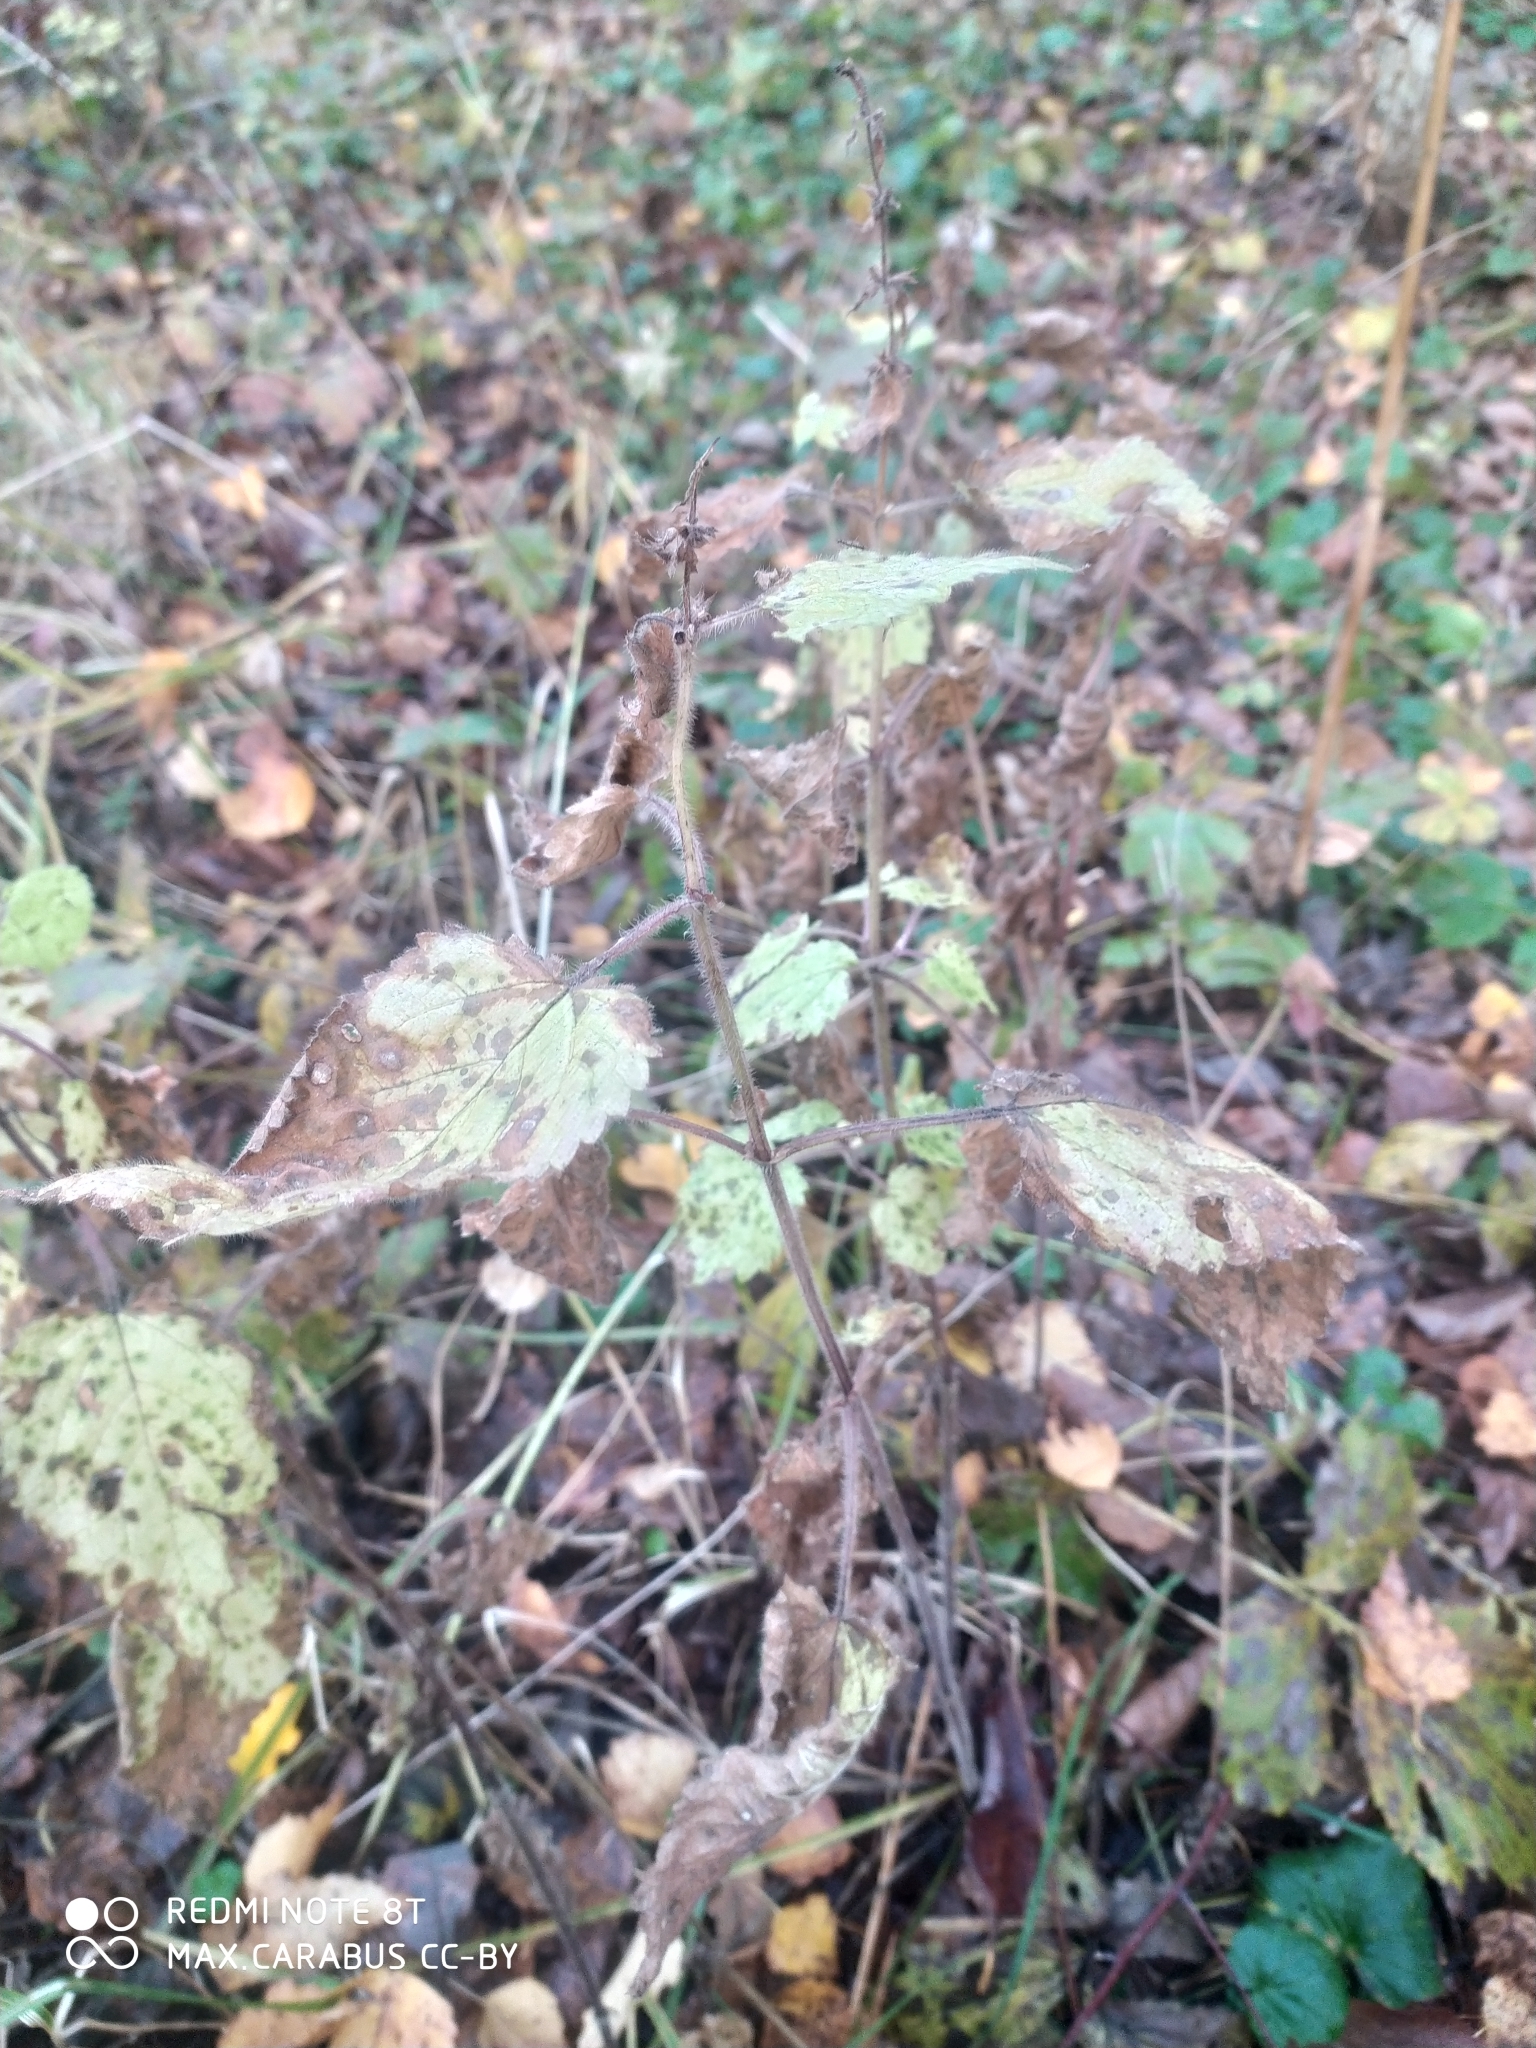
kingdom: Plantae
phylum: Tracheophyta
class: Magnoliopsida
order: Lamiales
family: Lamiaceae
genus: Stachys
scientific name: Stachys sylvatica
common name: Hedge woundwort
